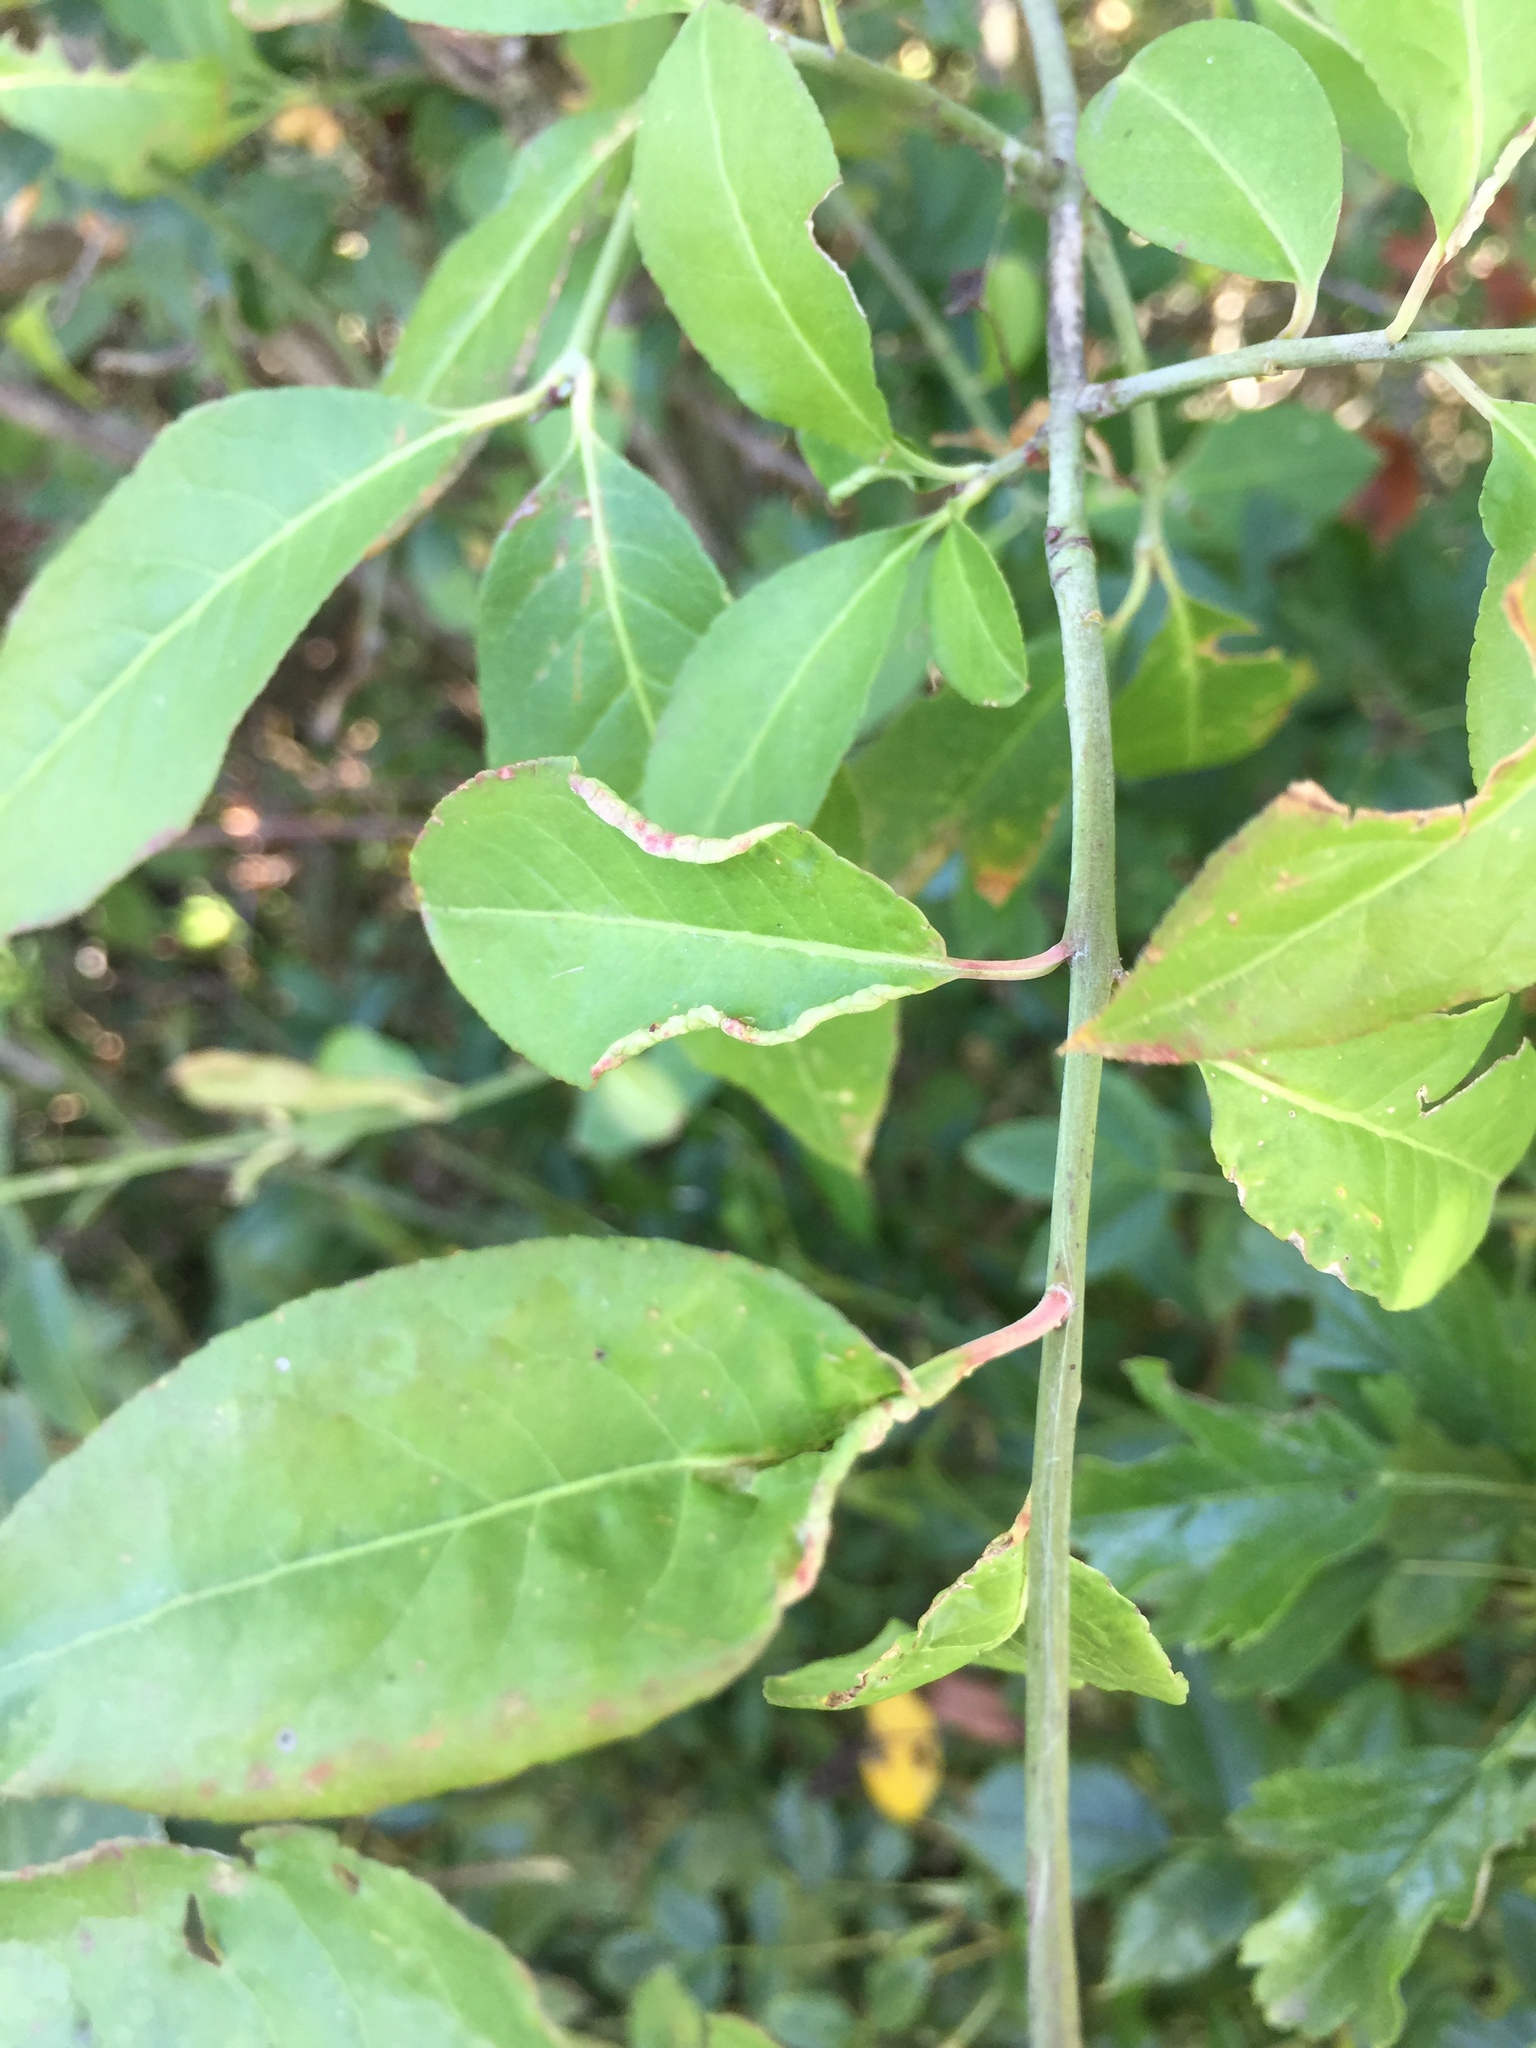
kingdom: Animalia
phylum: Arthropoda
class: Arachnida
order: Trombidiformes
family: Eriophyidae
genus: Stenacis
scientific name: Stenacis evonymi
